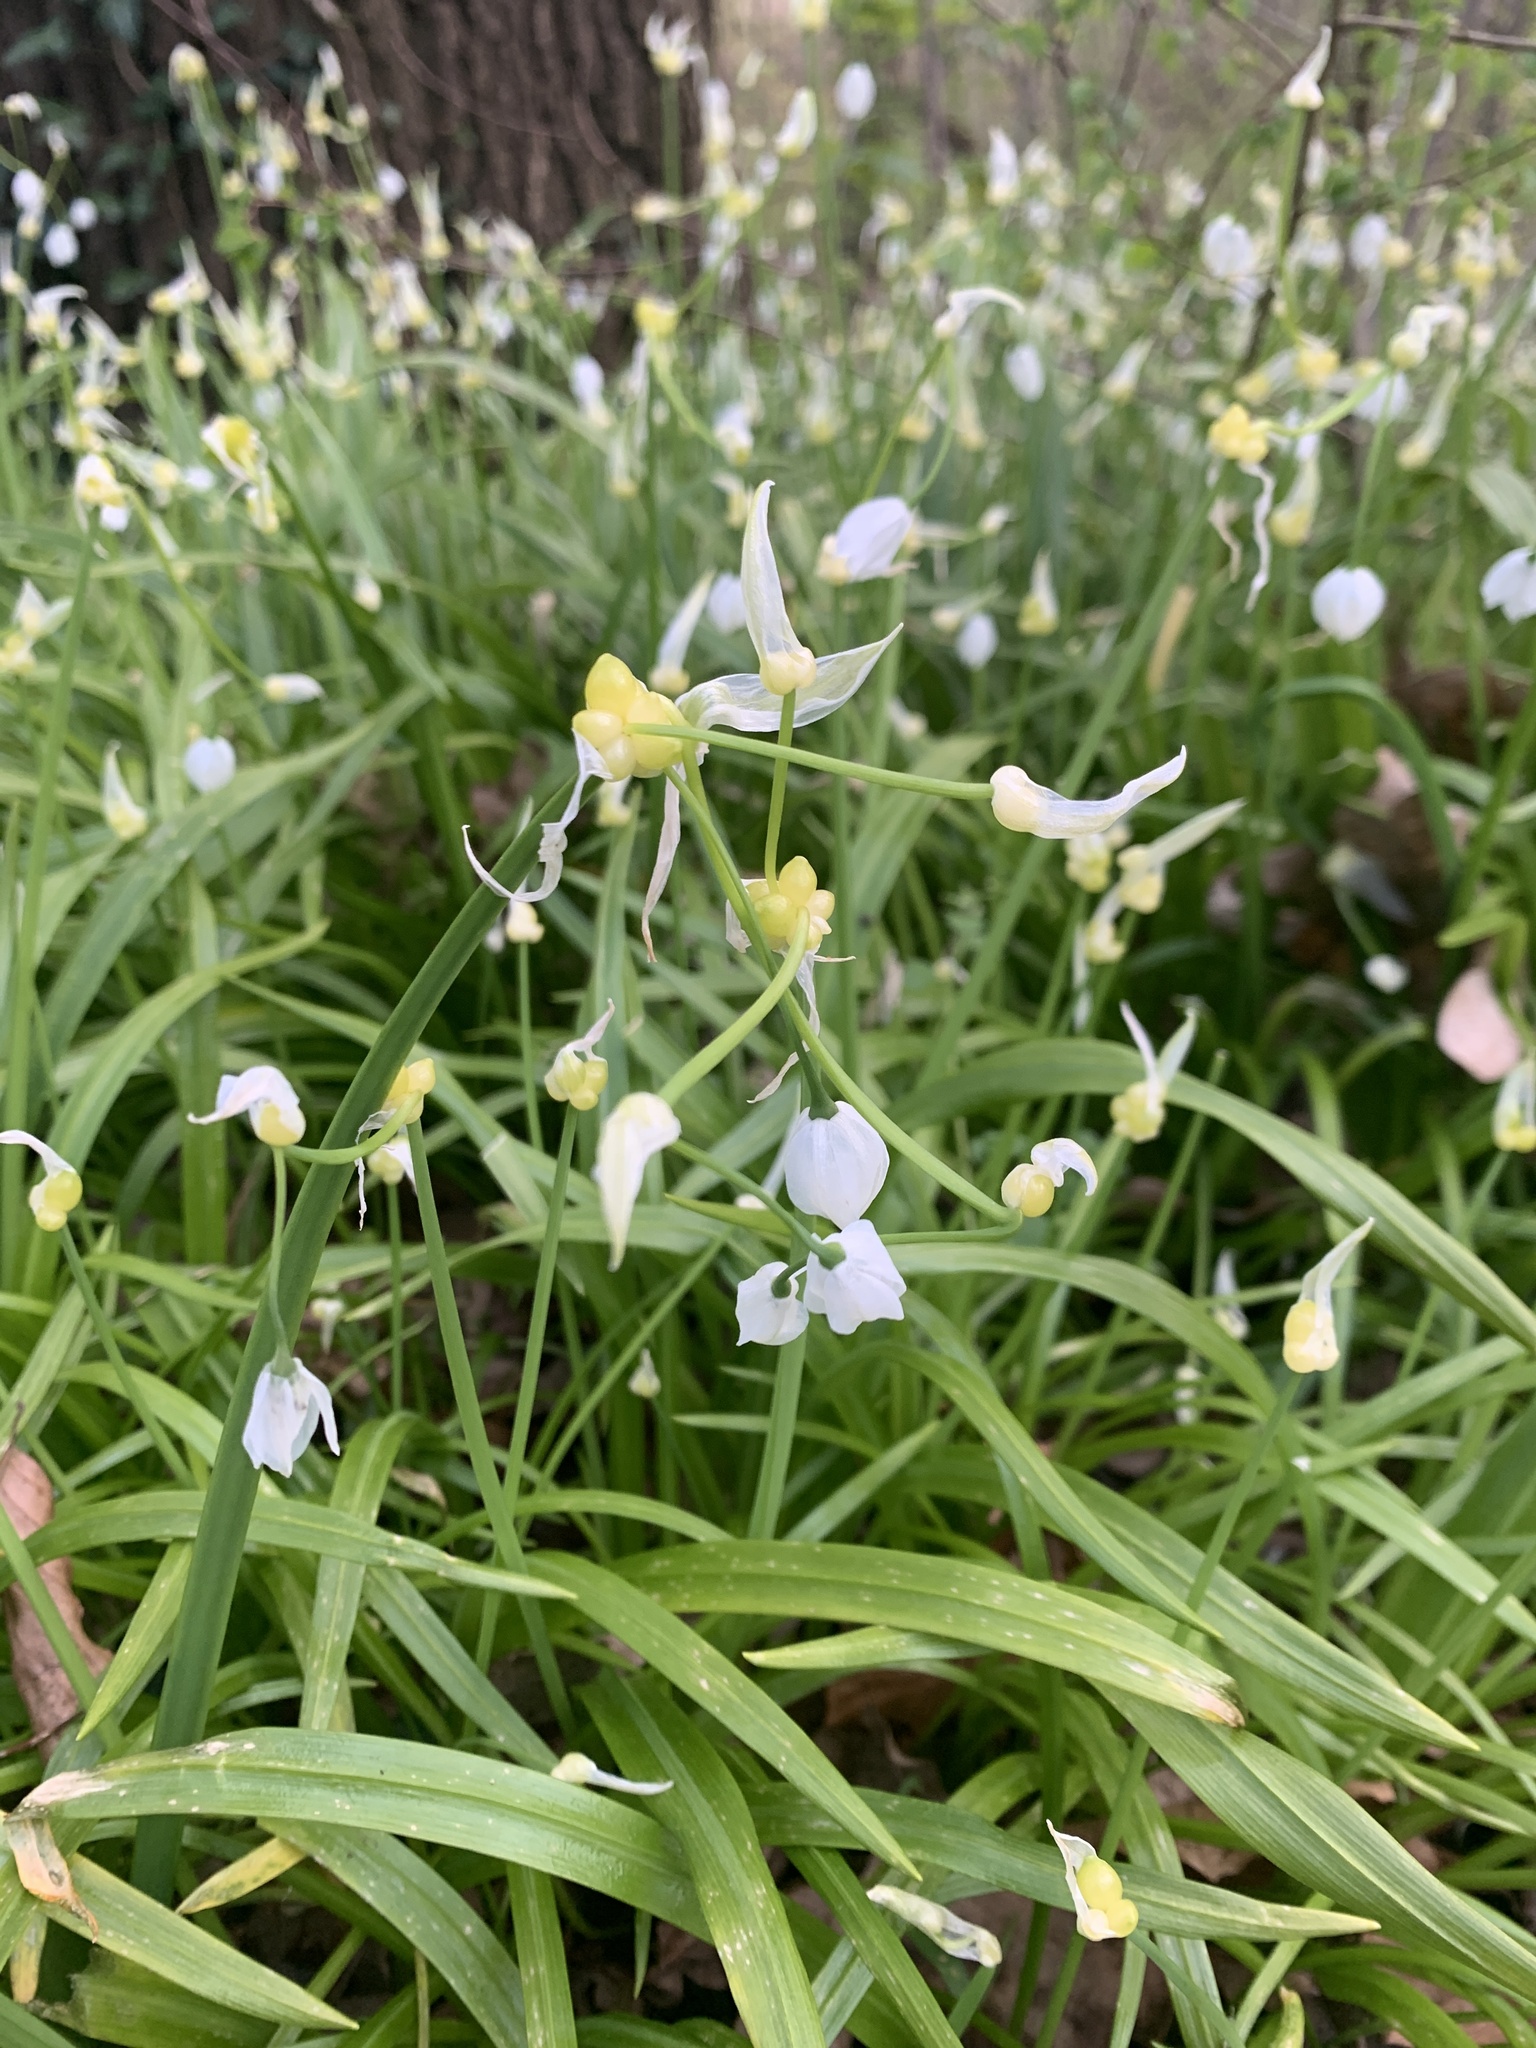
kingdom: Plantae
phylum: Tracheophyta
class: Liliopsida
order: Asparagales
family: Amaryllidaceae
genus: Allium
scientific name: Allium paradoxum
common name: Few-flowered garlic
